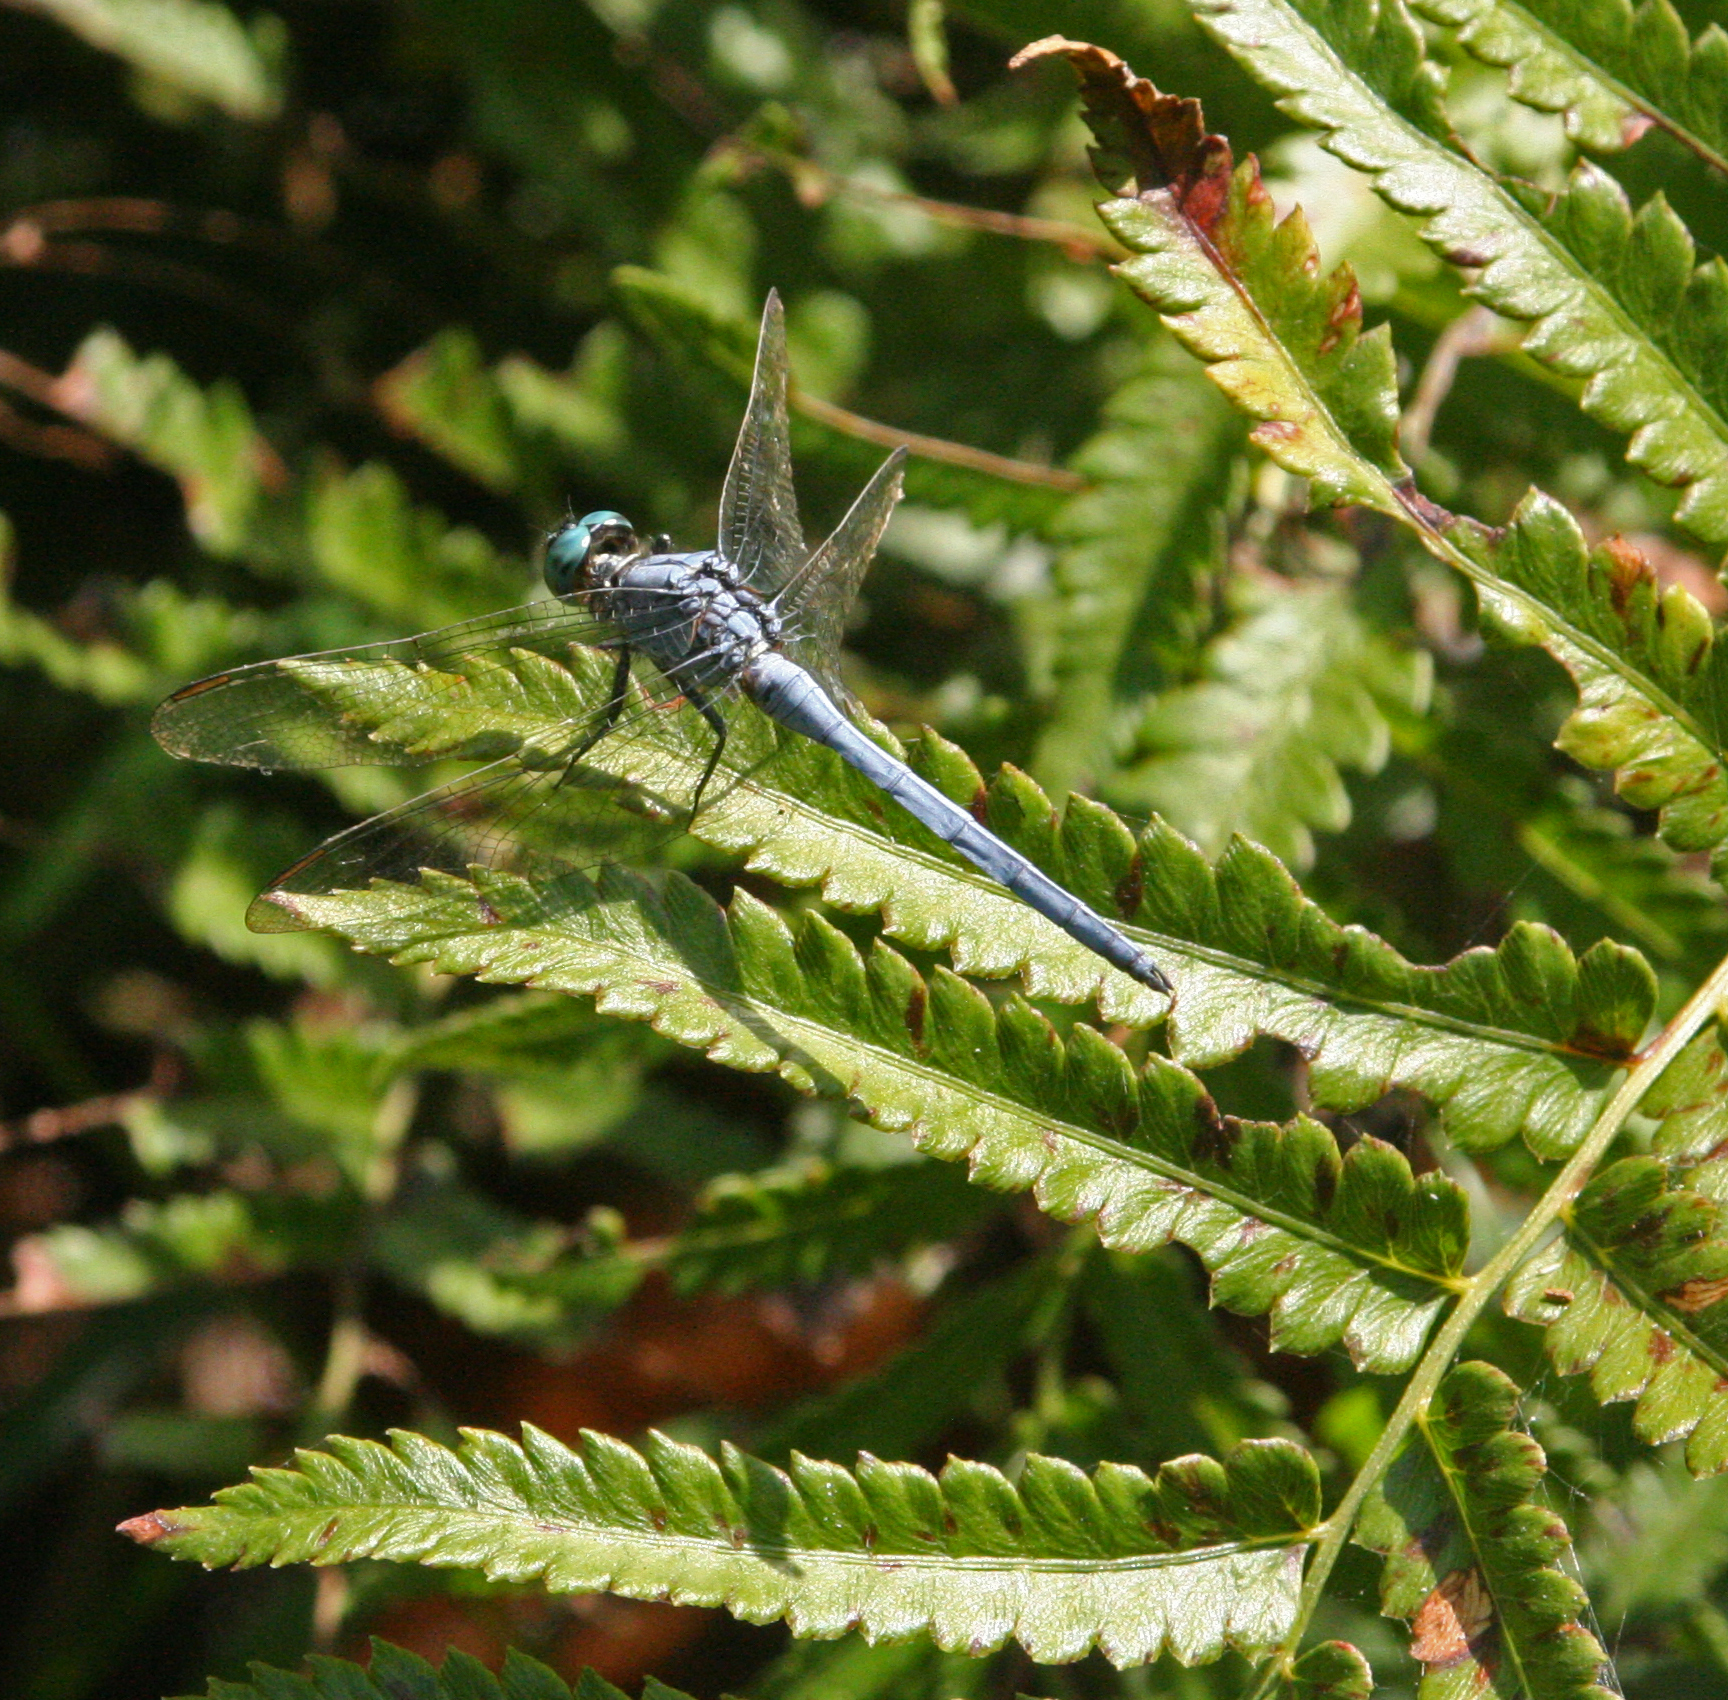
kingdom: Animalia
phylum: Arthropoda
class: Insecta
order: Odonata
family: Libellulidae
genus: Orthetrum
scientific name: Orthetrum luzonicum
